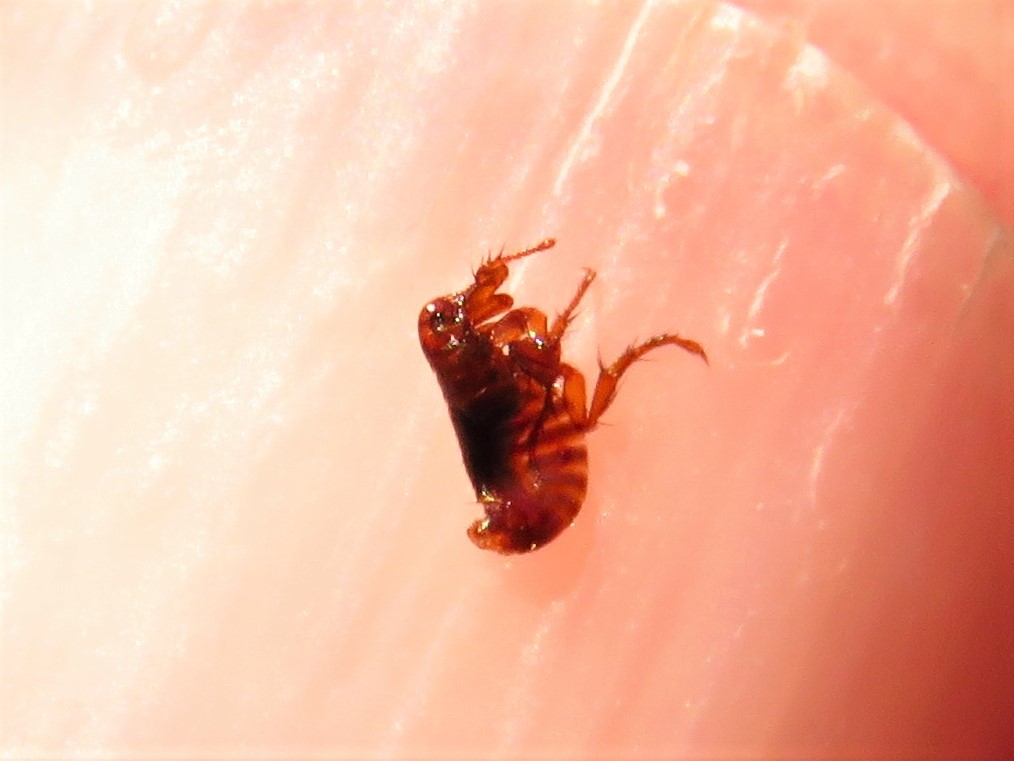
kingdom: Animalia
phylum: Arthropoda
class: Insecta
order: Siphonaptera
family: Pulicidae
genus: Ctenocephalides
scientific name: Ctenocephalides felis
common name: Cat flea
